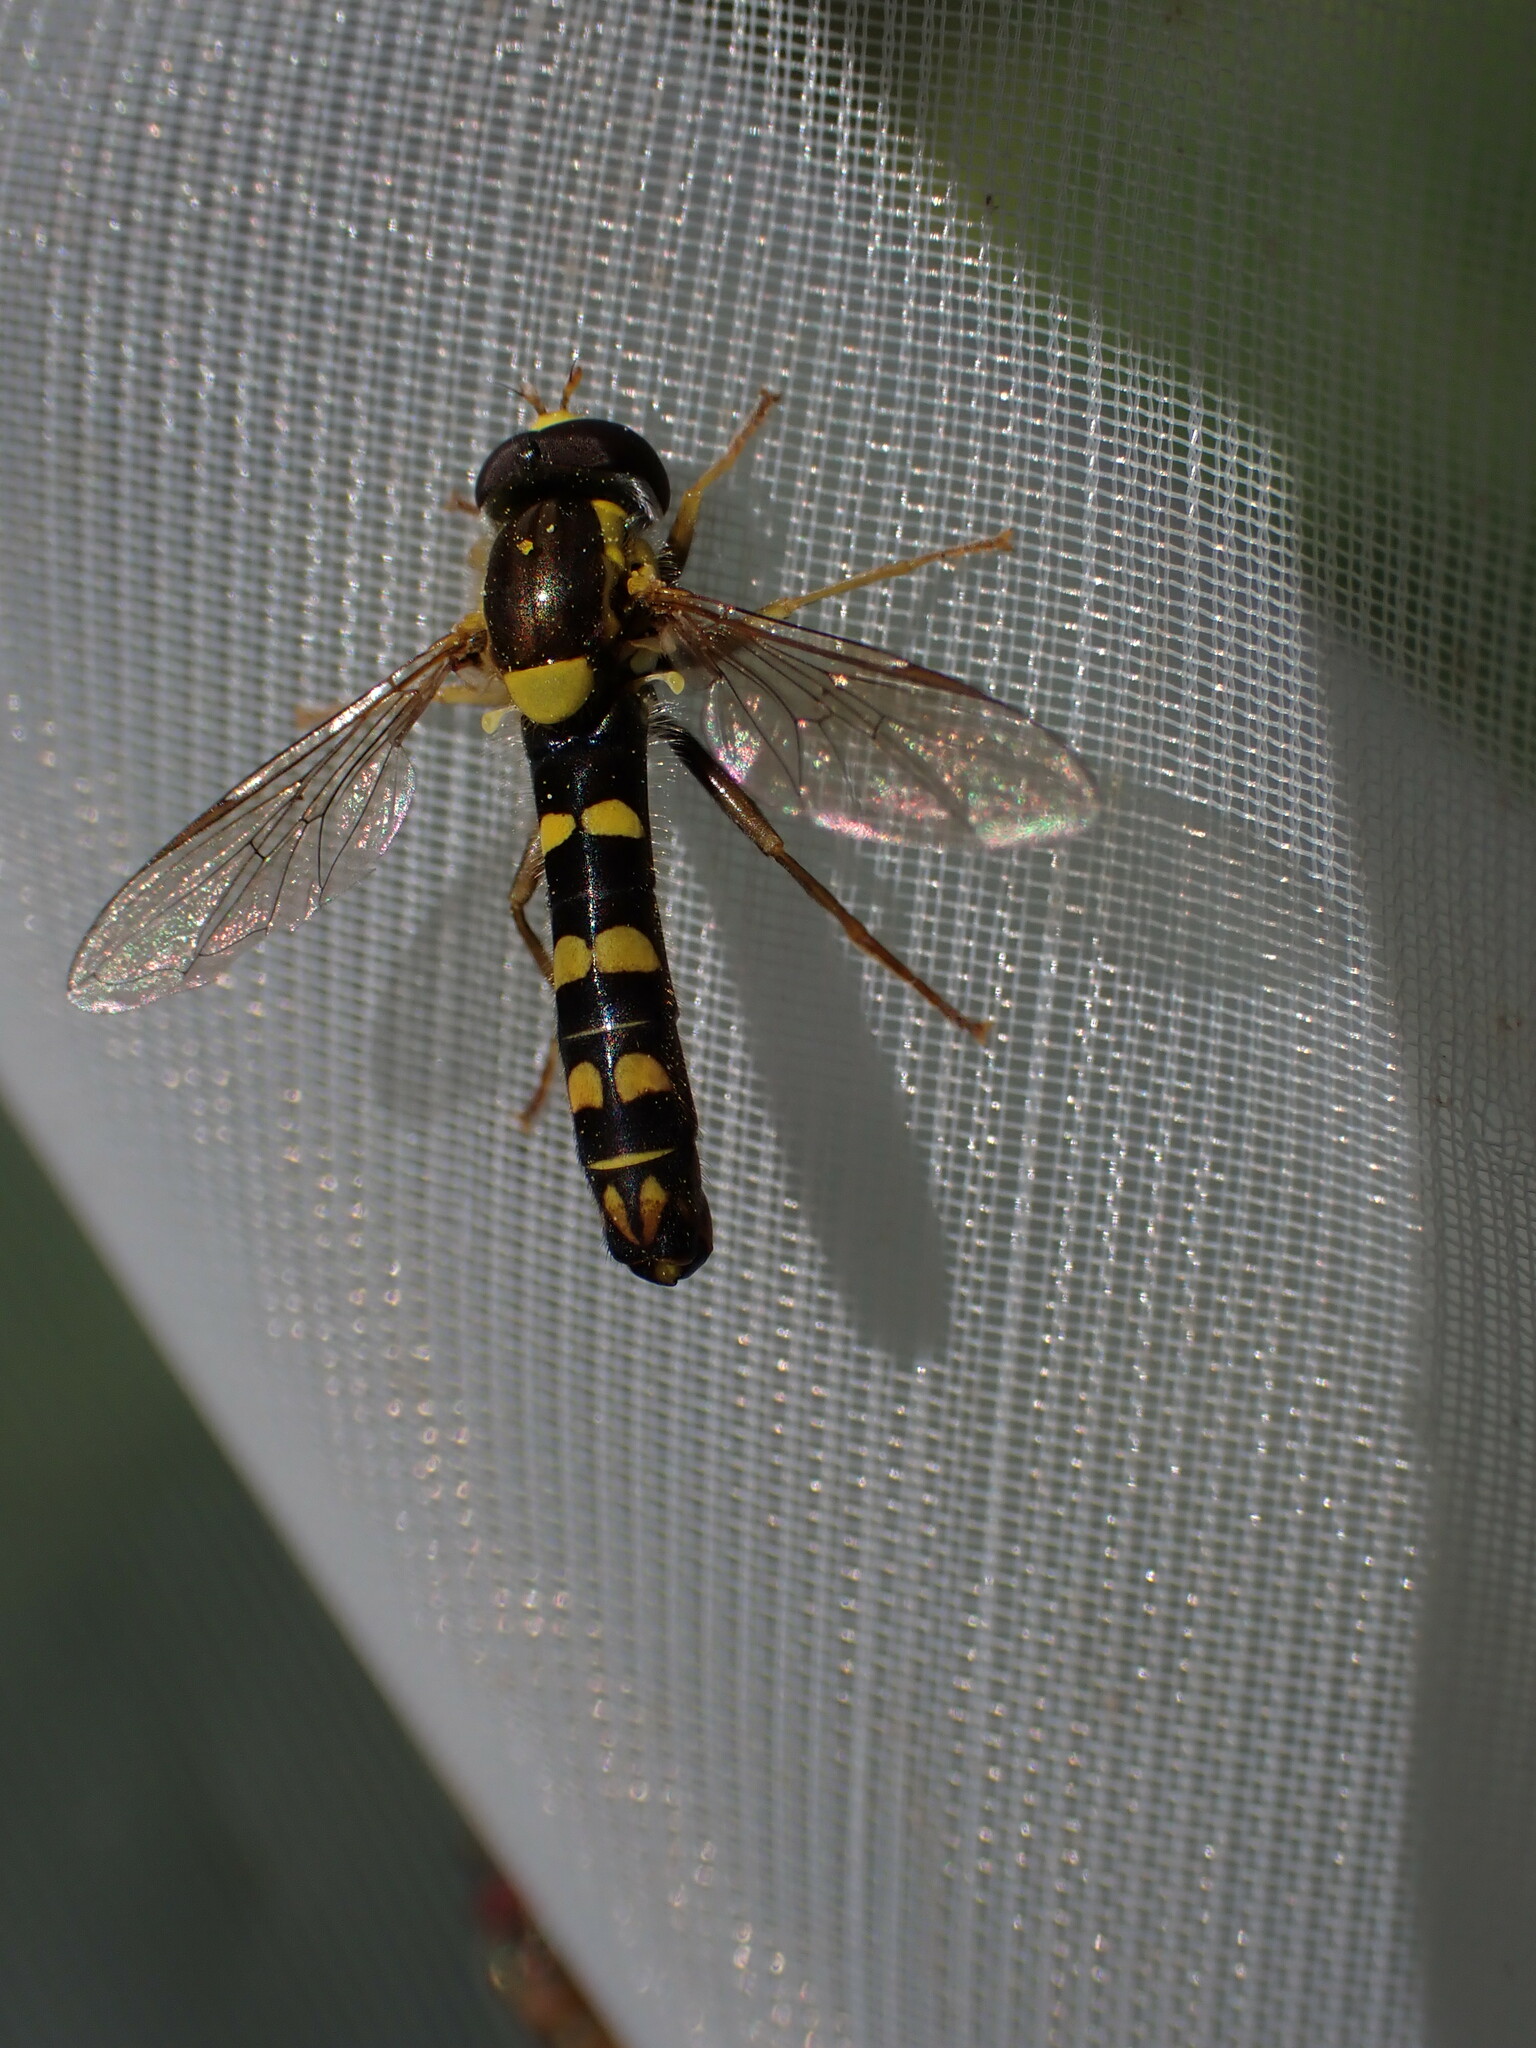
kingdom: Animalia
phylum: Arthropoda
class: Insecta
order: Diptera
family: Syrphidae
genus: Sphaerophoria
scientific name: Sphaerophoria scripta
